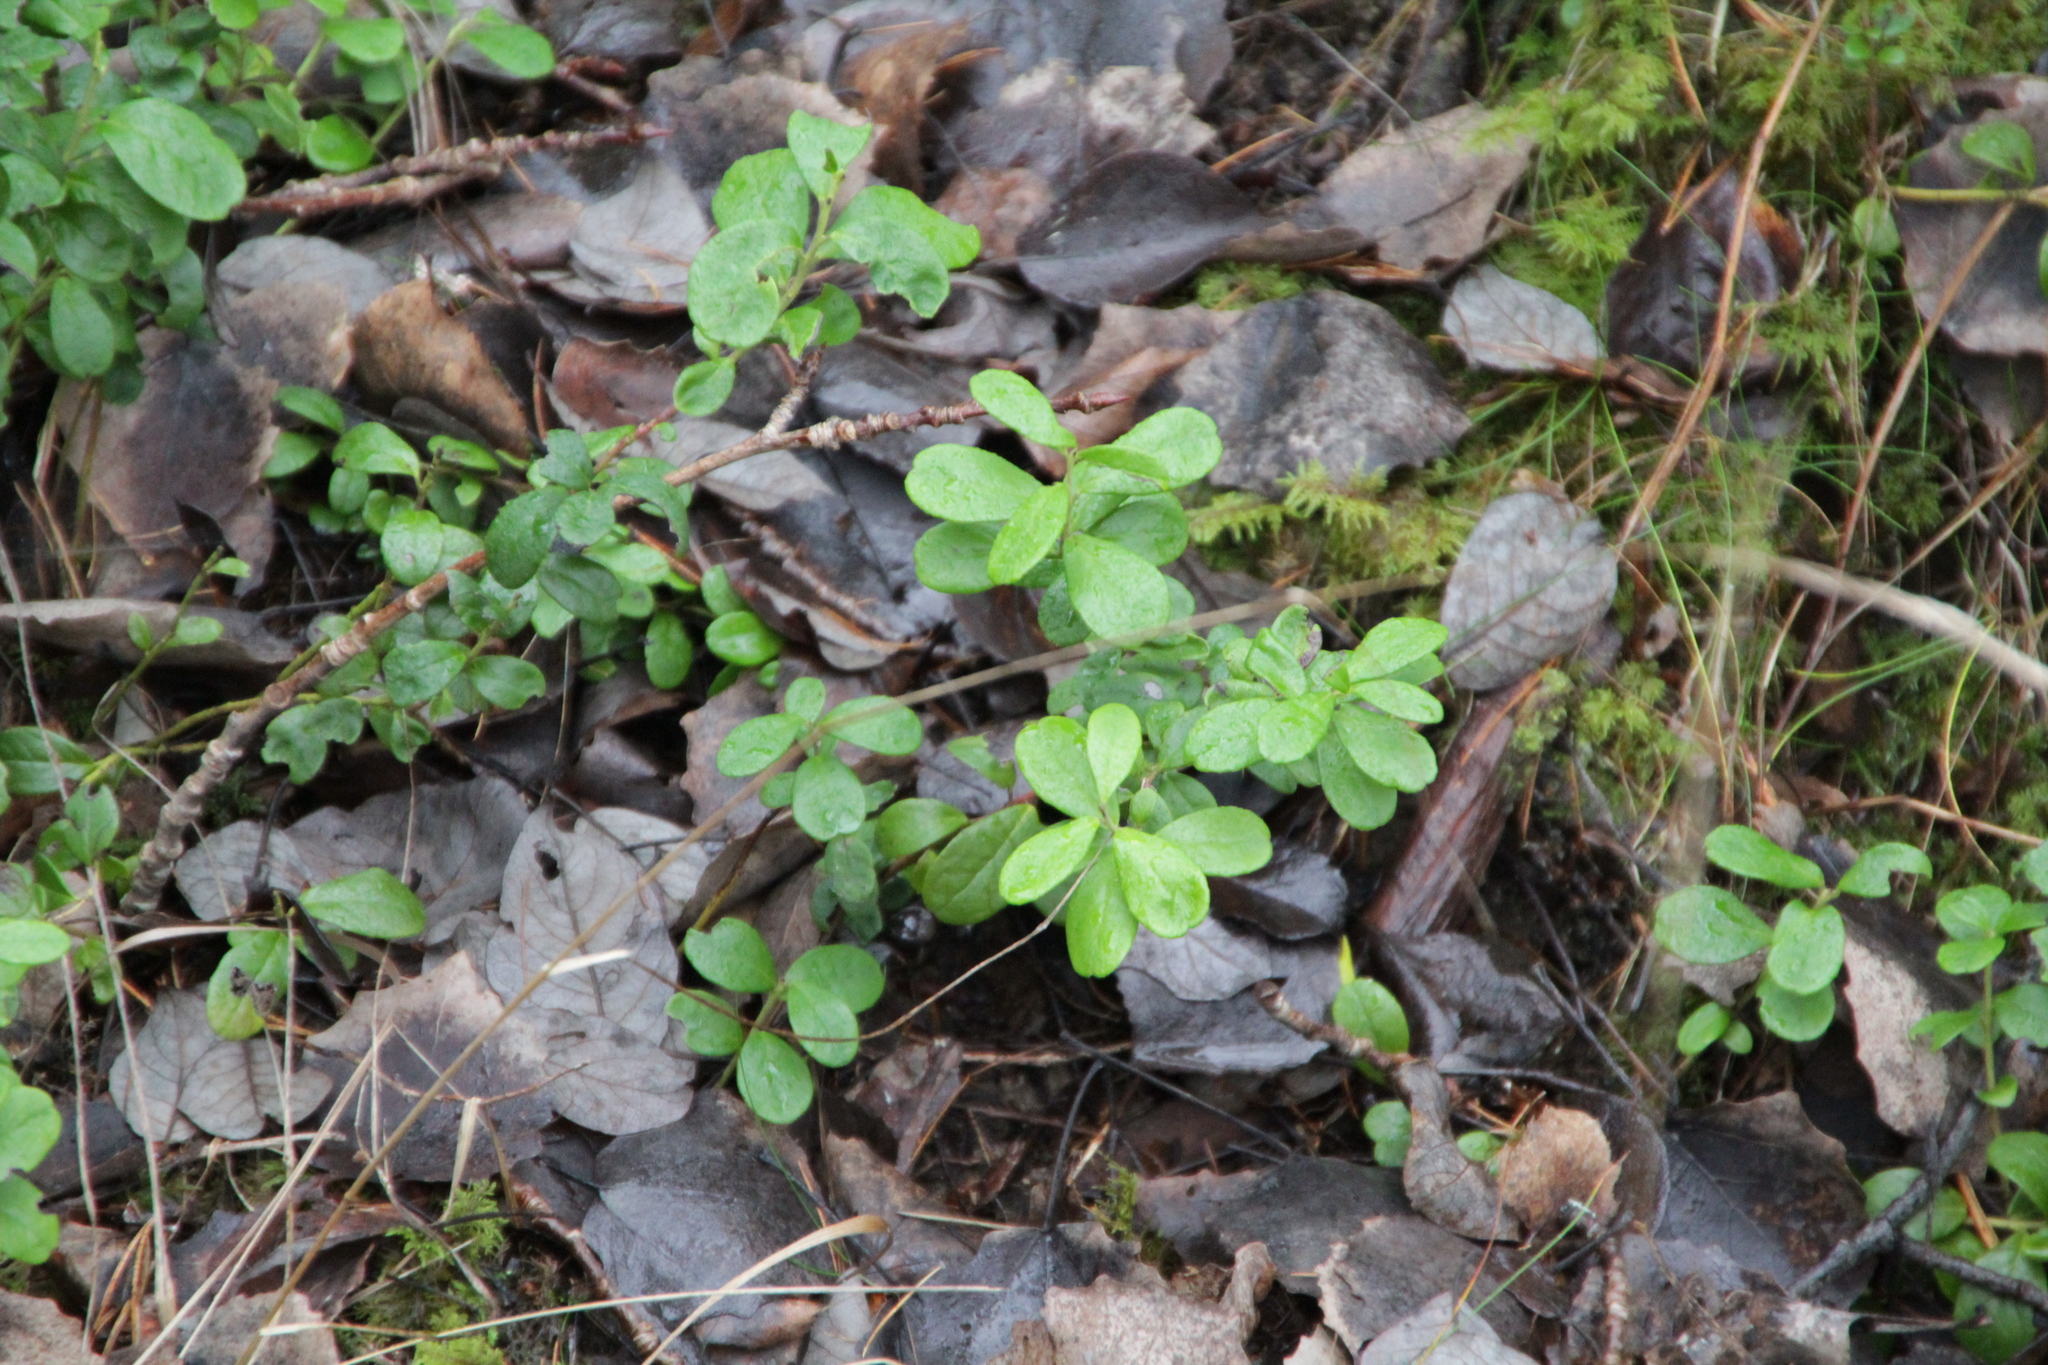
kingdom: Plantae
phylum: Tracheophyta
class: Magnoliopsida
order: Ericales
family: Ericaceae
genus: Vaccinium
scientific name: Vaccinium vitis-idaea
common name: Cowberry
